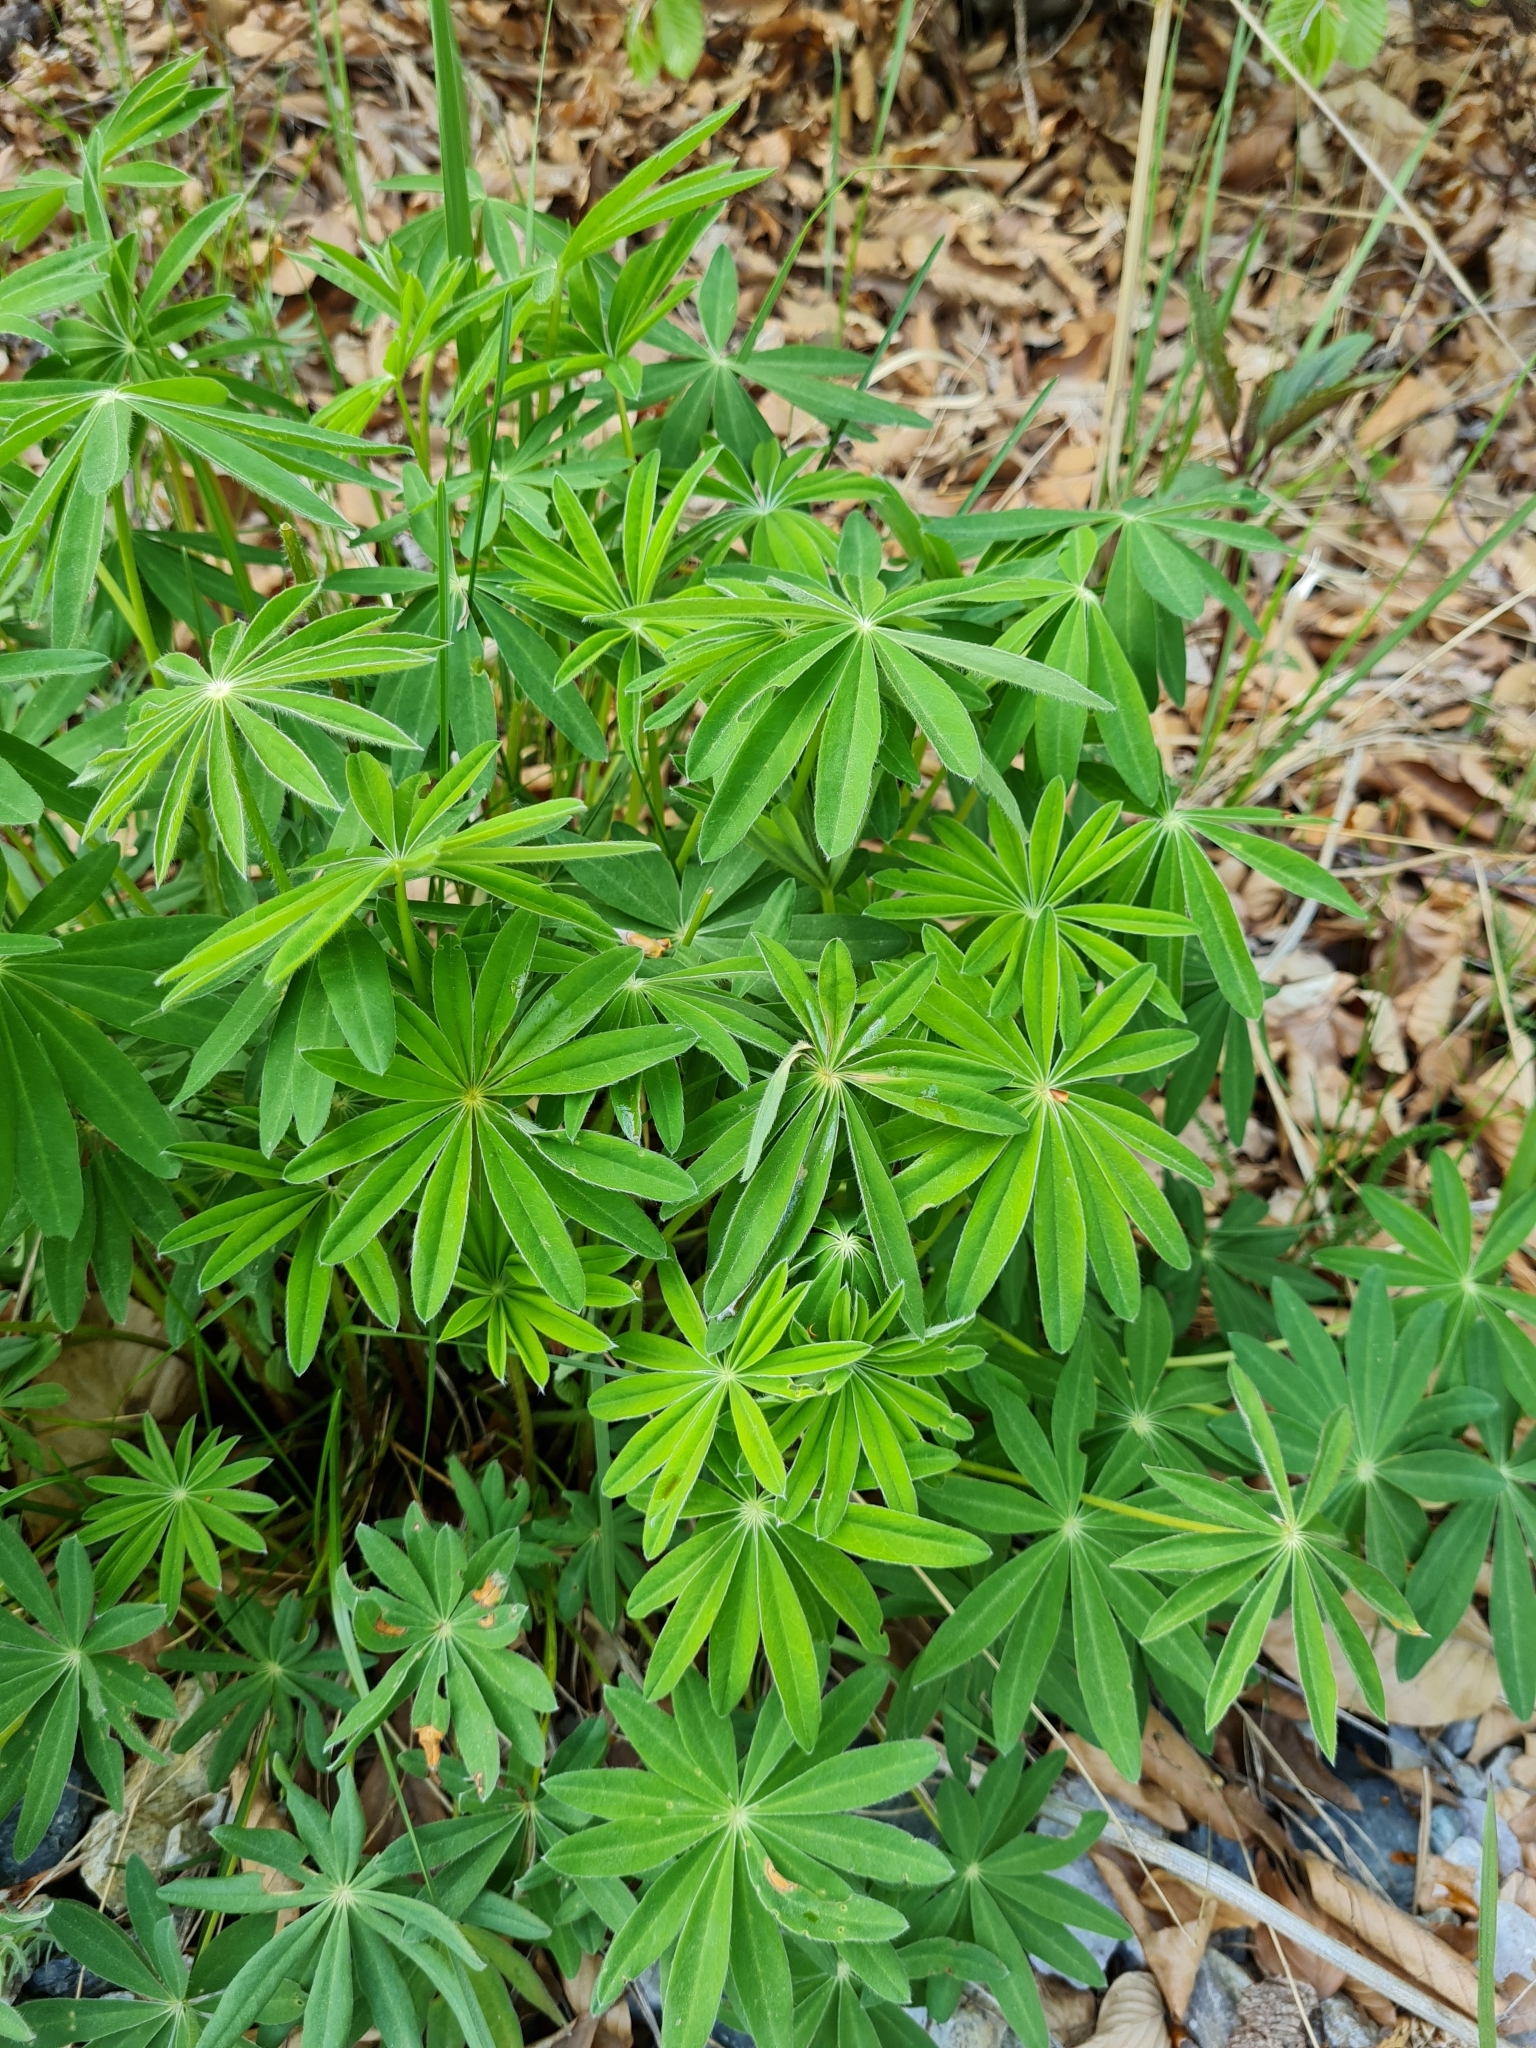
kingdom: Plantae
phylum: Tracheophyta
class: Magnoliopsida
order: Fabales
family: Fabaceae
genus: Lupinus
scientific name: Lupinus polyphyllus
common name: Garden lupin
